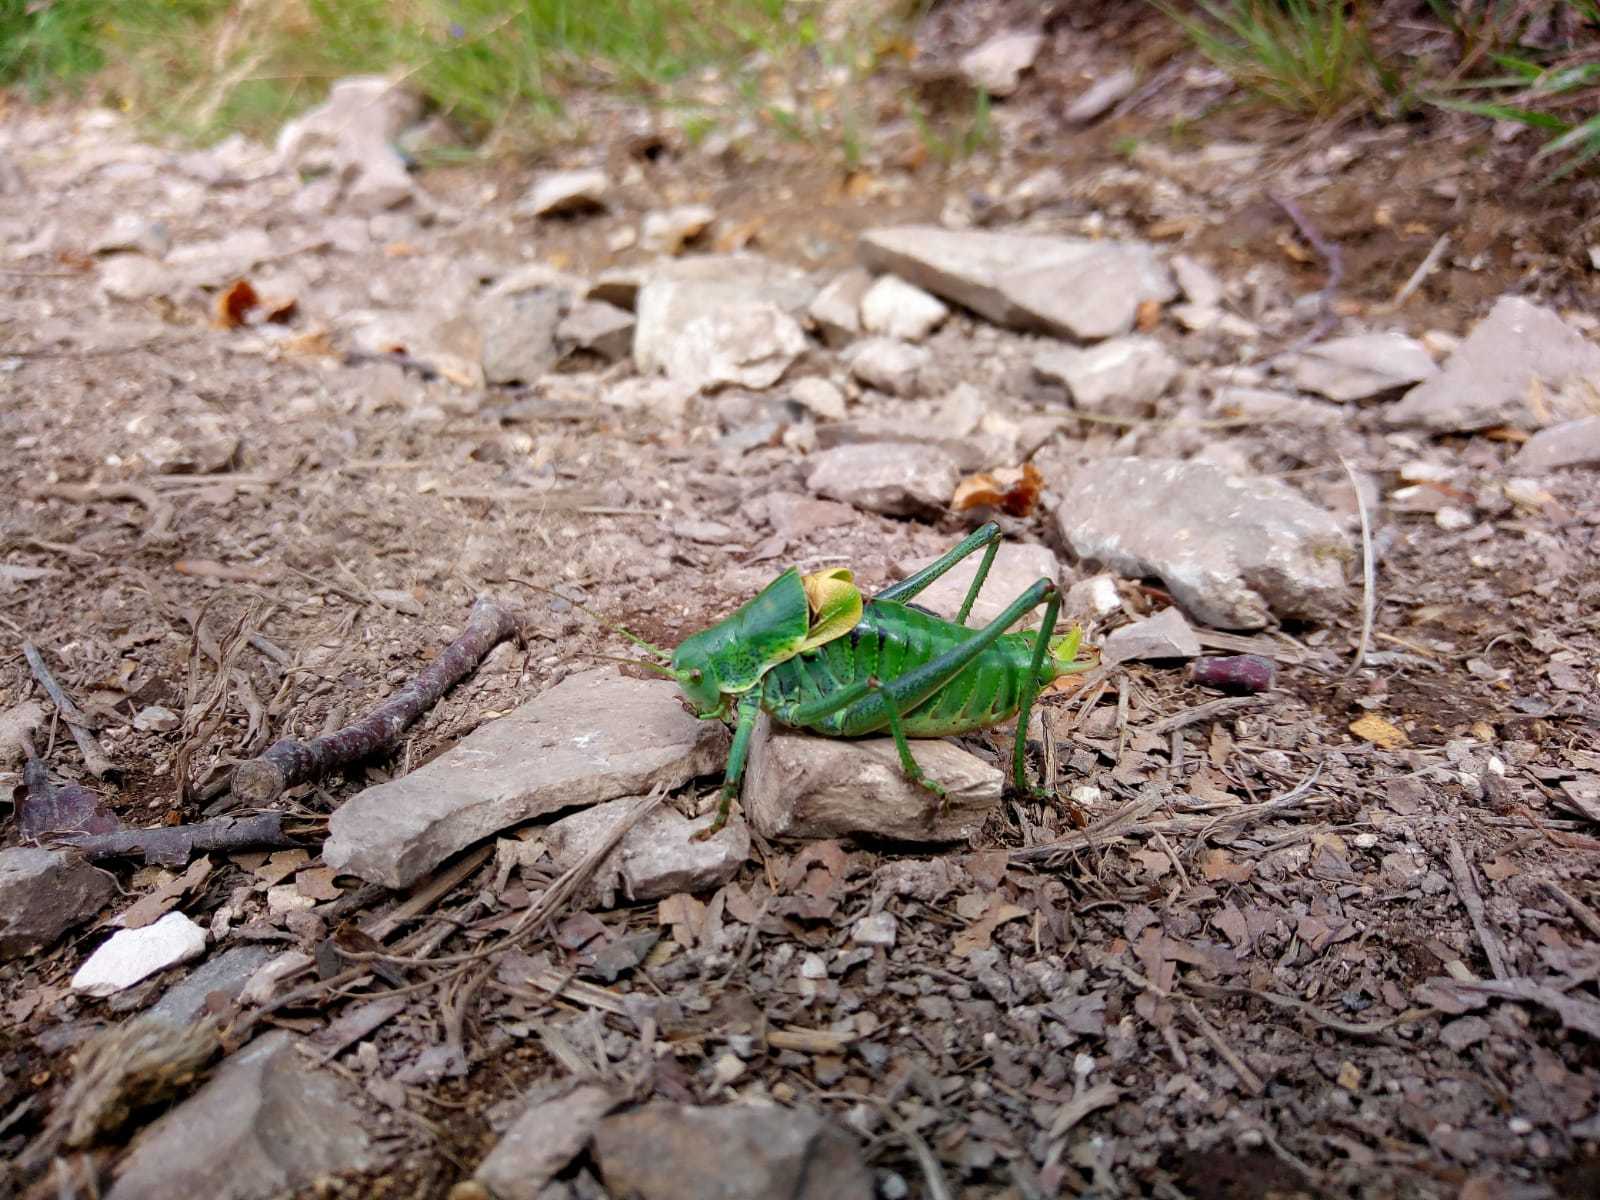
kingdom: Animalia
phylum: Arthropoda
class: Insecta
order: Orthoptera
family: Tettigoniidae
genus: Polysarcus
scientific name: Polysarcus denticauda
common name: Large saw-tailed bush-cricket
